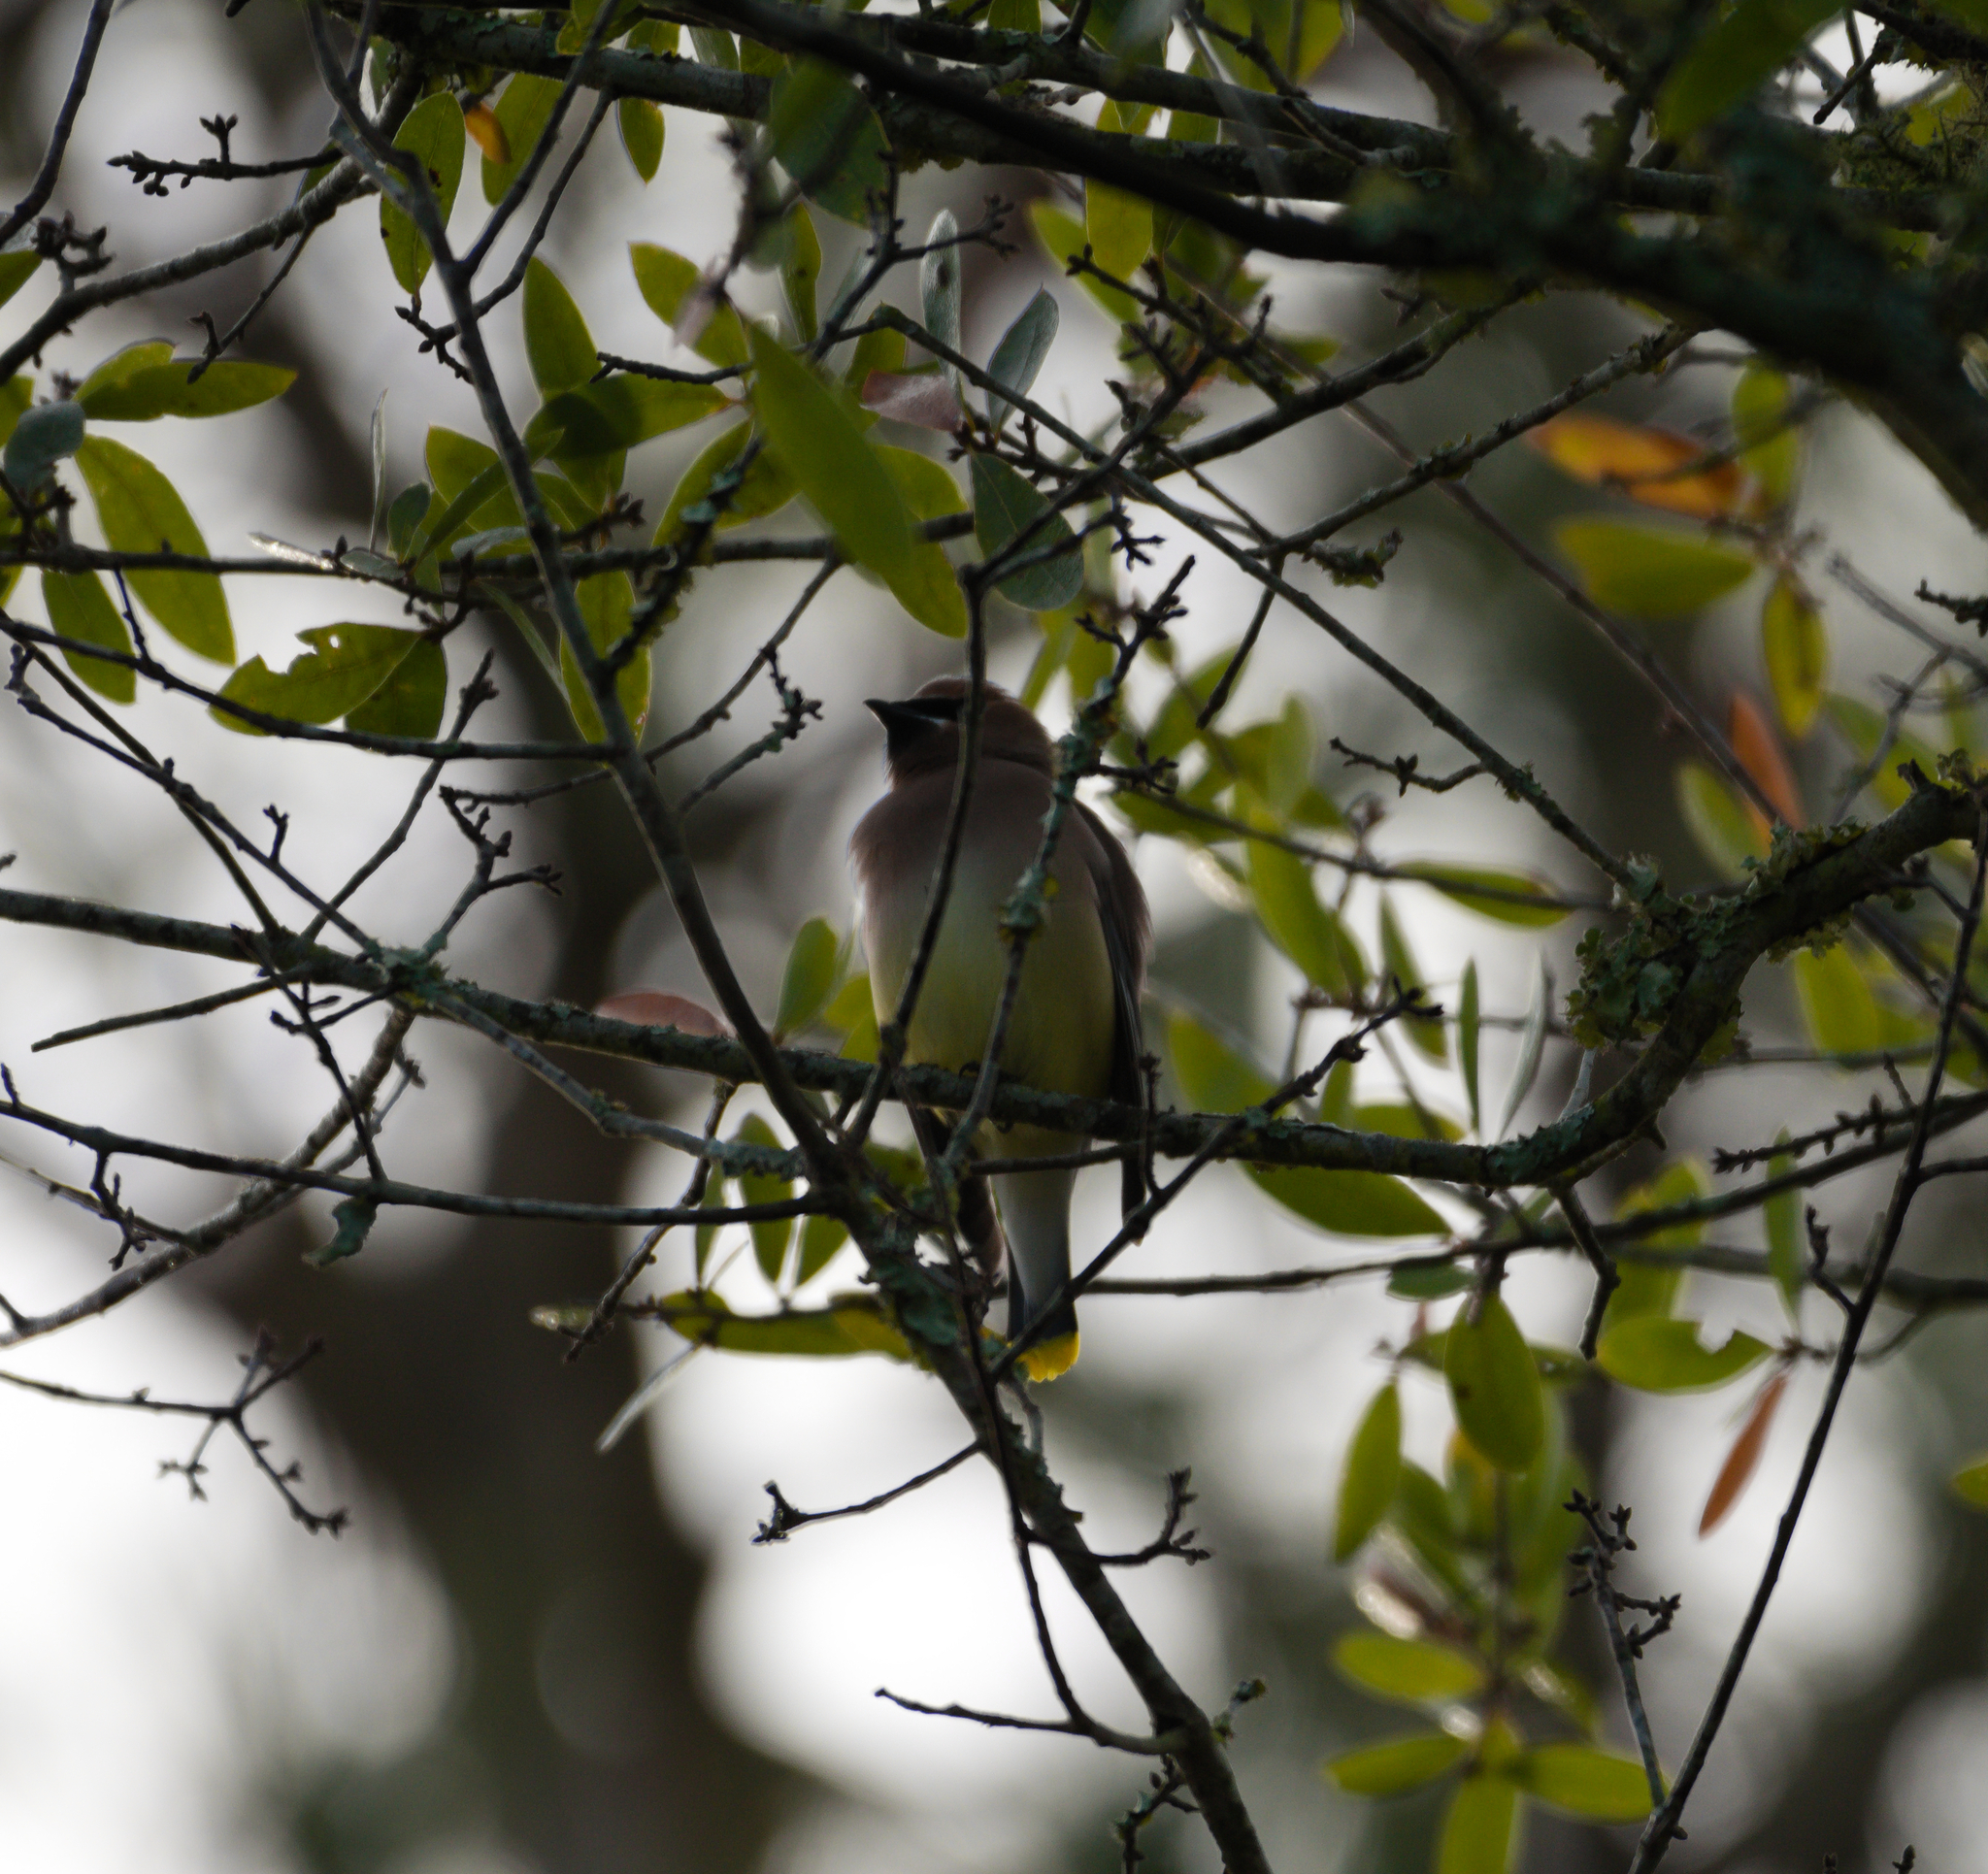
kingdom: Animalia
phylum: Chordata
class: Aves
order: Passeriformes
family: Bombycillidae
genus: Bombycilla
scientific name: Bombycilla cedrorum
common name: Cedar waxwing
